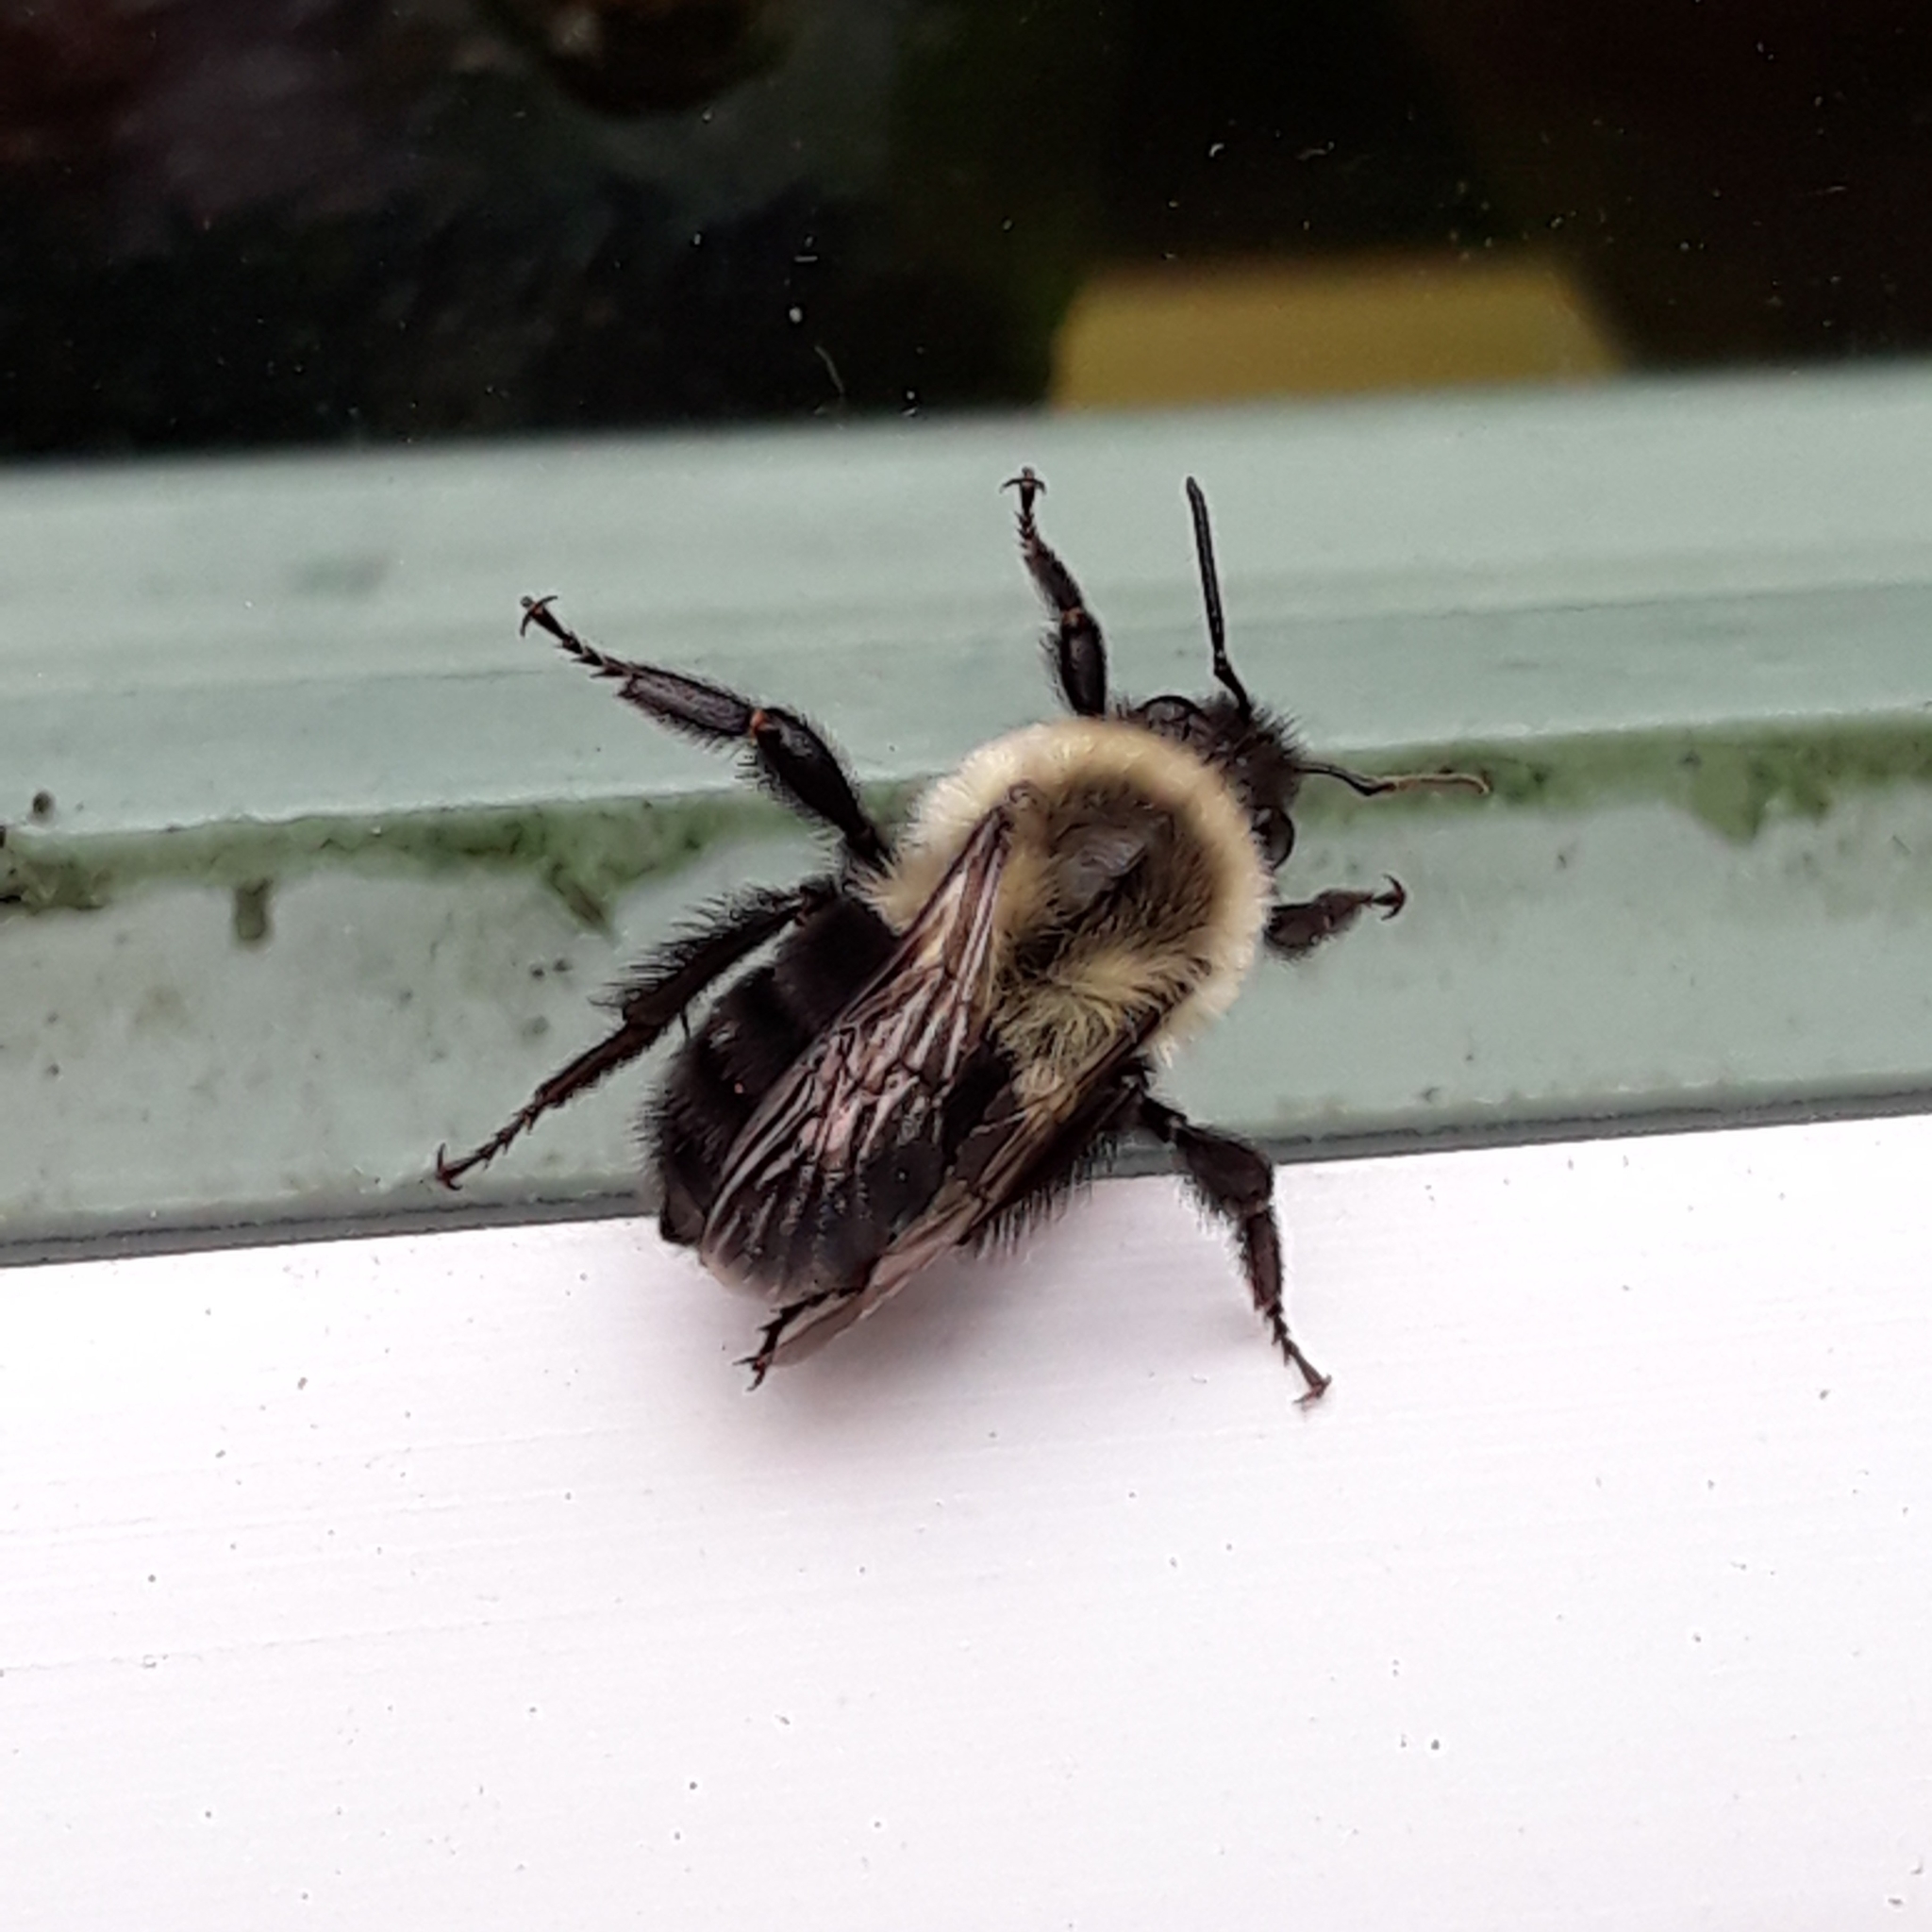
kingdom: Animalia
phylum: Arthropoda
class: Insecta
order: Hymenoptera
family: Apidae
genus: Bombus
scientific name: Bombus impatiens
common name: Common eastern bumble bee
